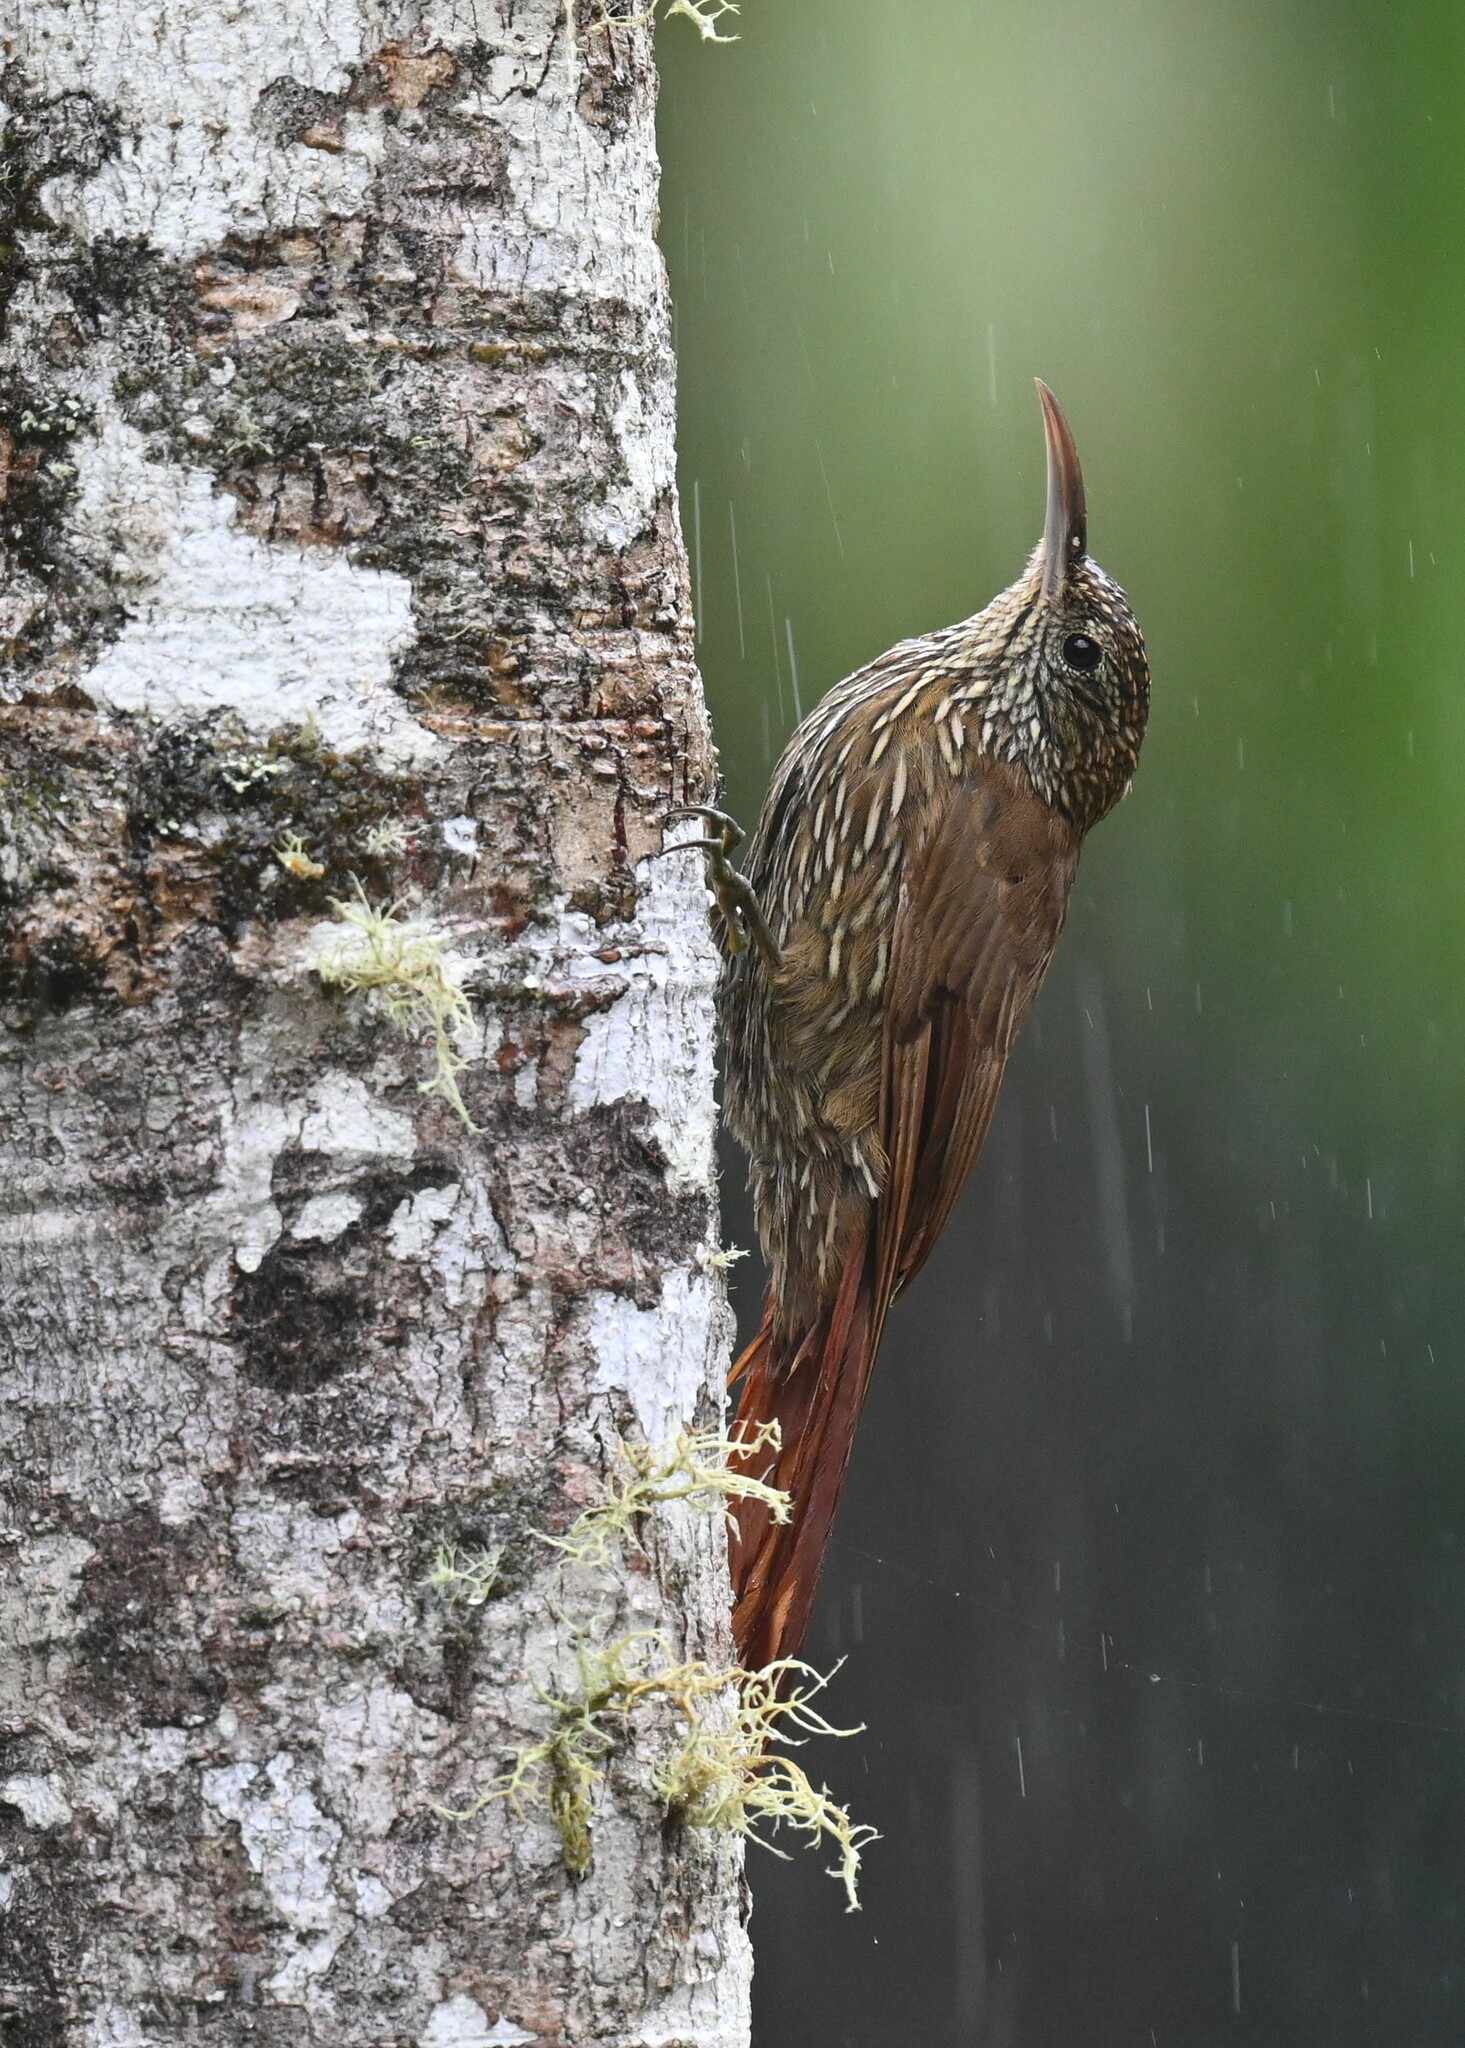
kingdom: Animalia
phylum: Chordata
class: Aves
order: Passeriformes
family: Furnariidae
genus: Lepidocolaptes
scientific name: Lepidocolaptes lacrymiger
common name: Montane woodcreeper
